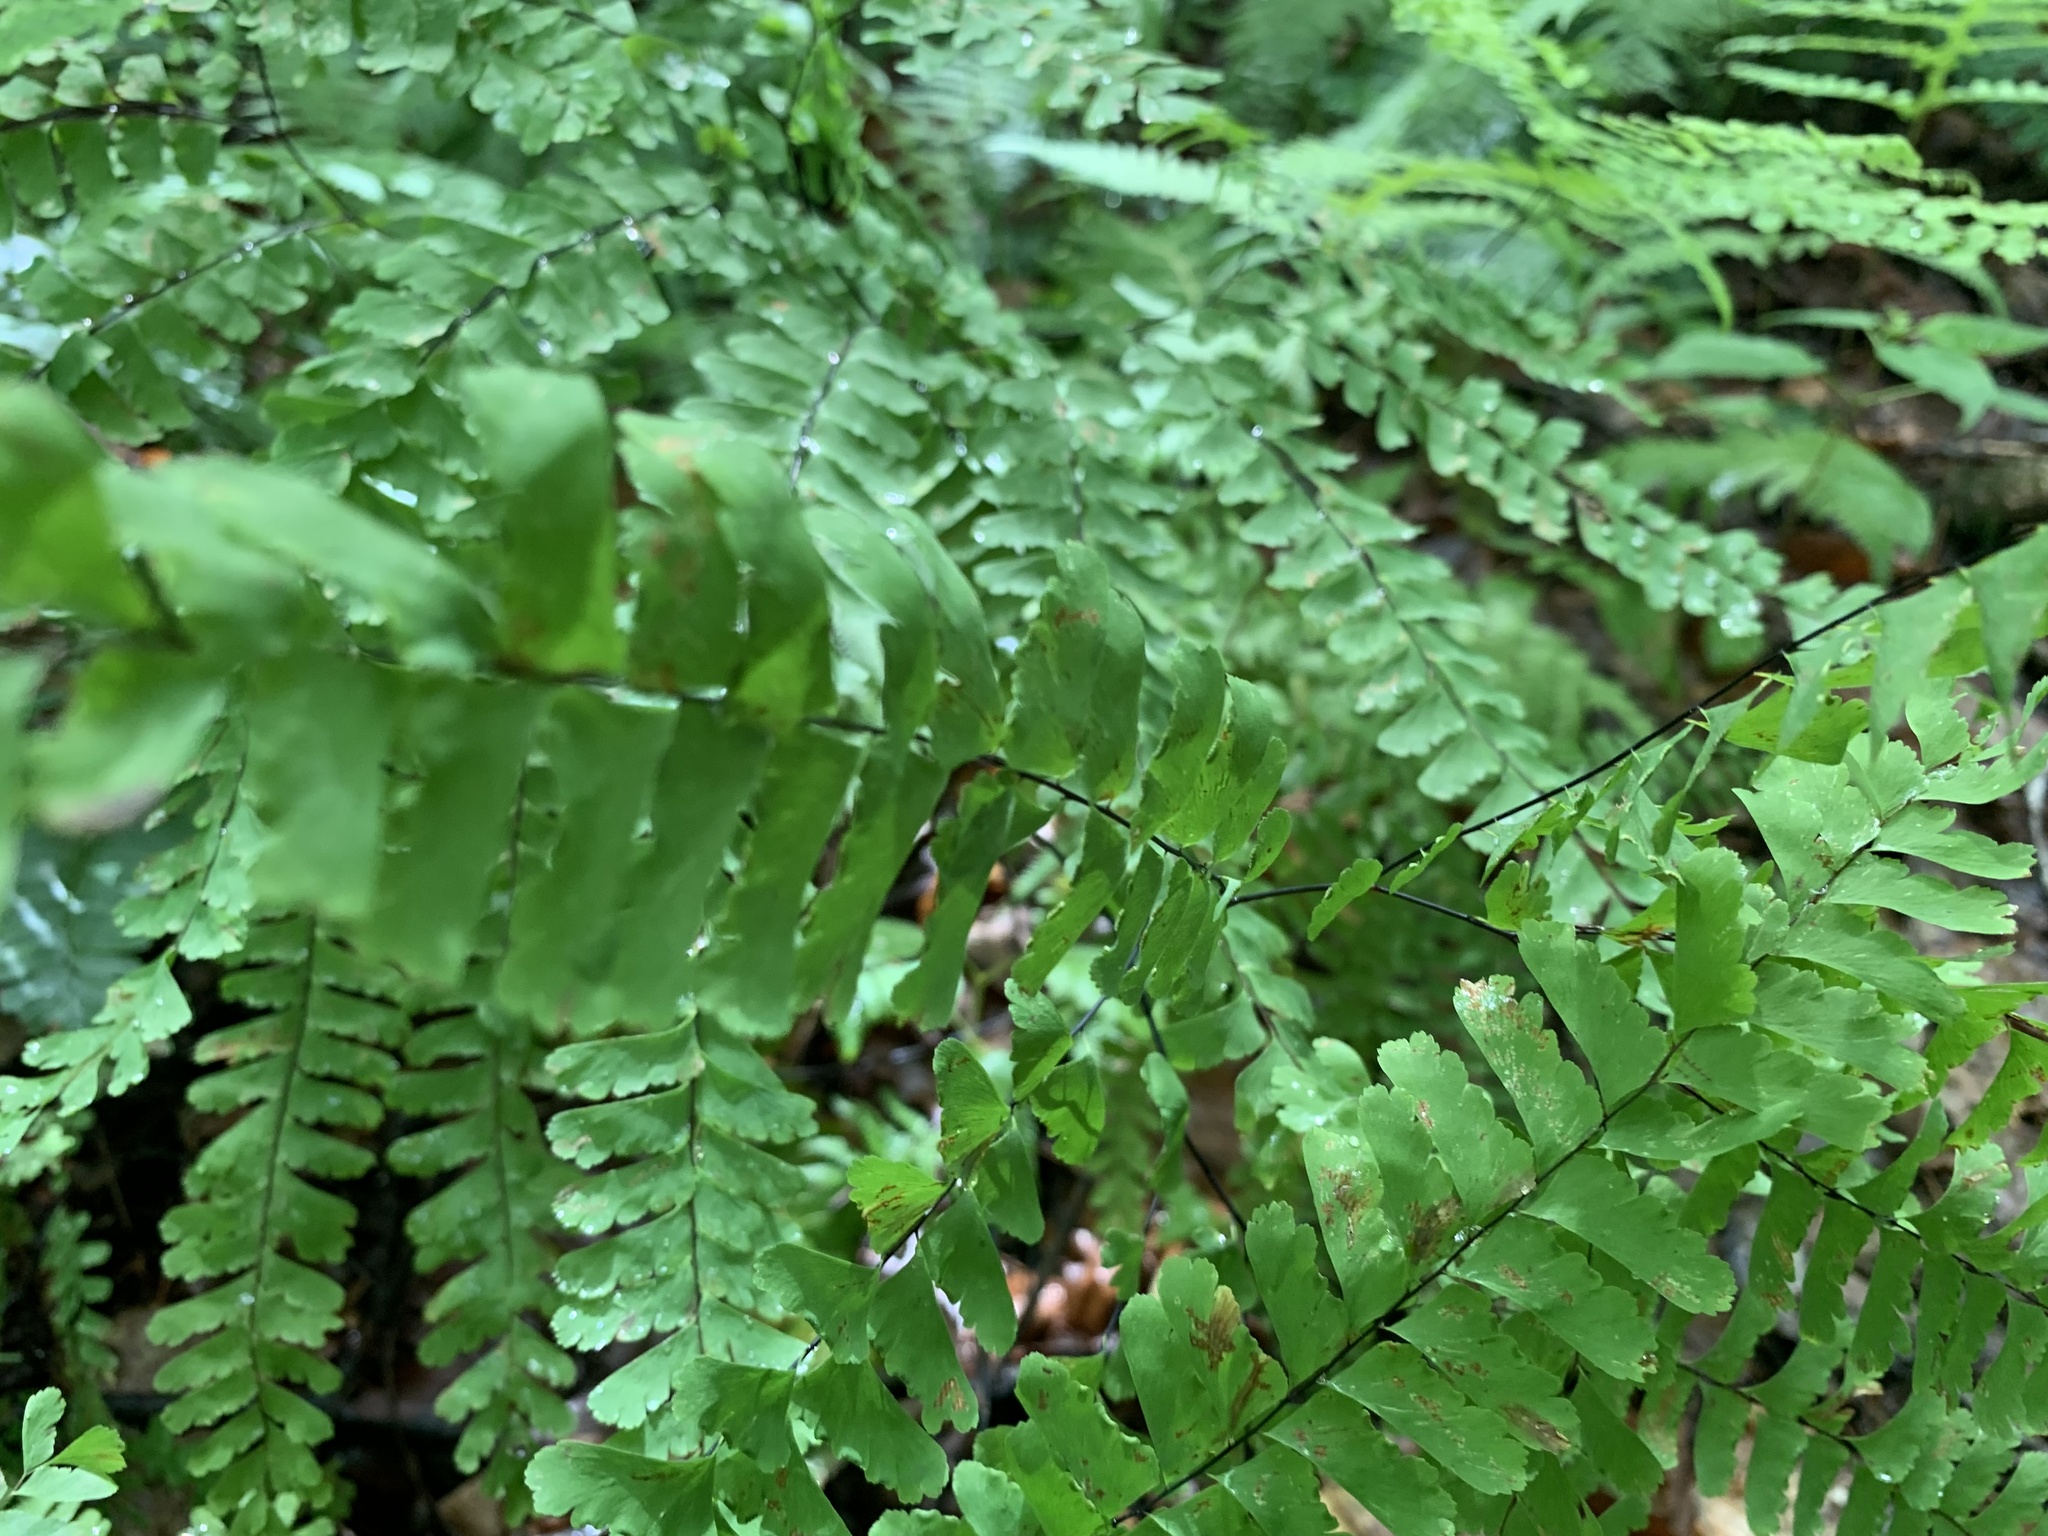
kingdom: Plantae
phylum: Tracheophyta
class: Polypodiopsida
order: Polypodiales
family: Pteridaceae
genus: Adiantum
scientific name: Adiantum pedatum
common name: Five-finger fern
